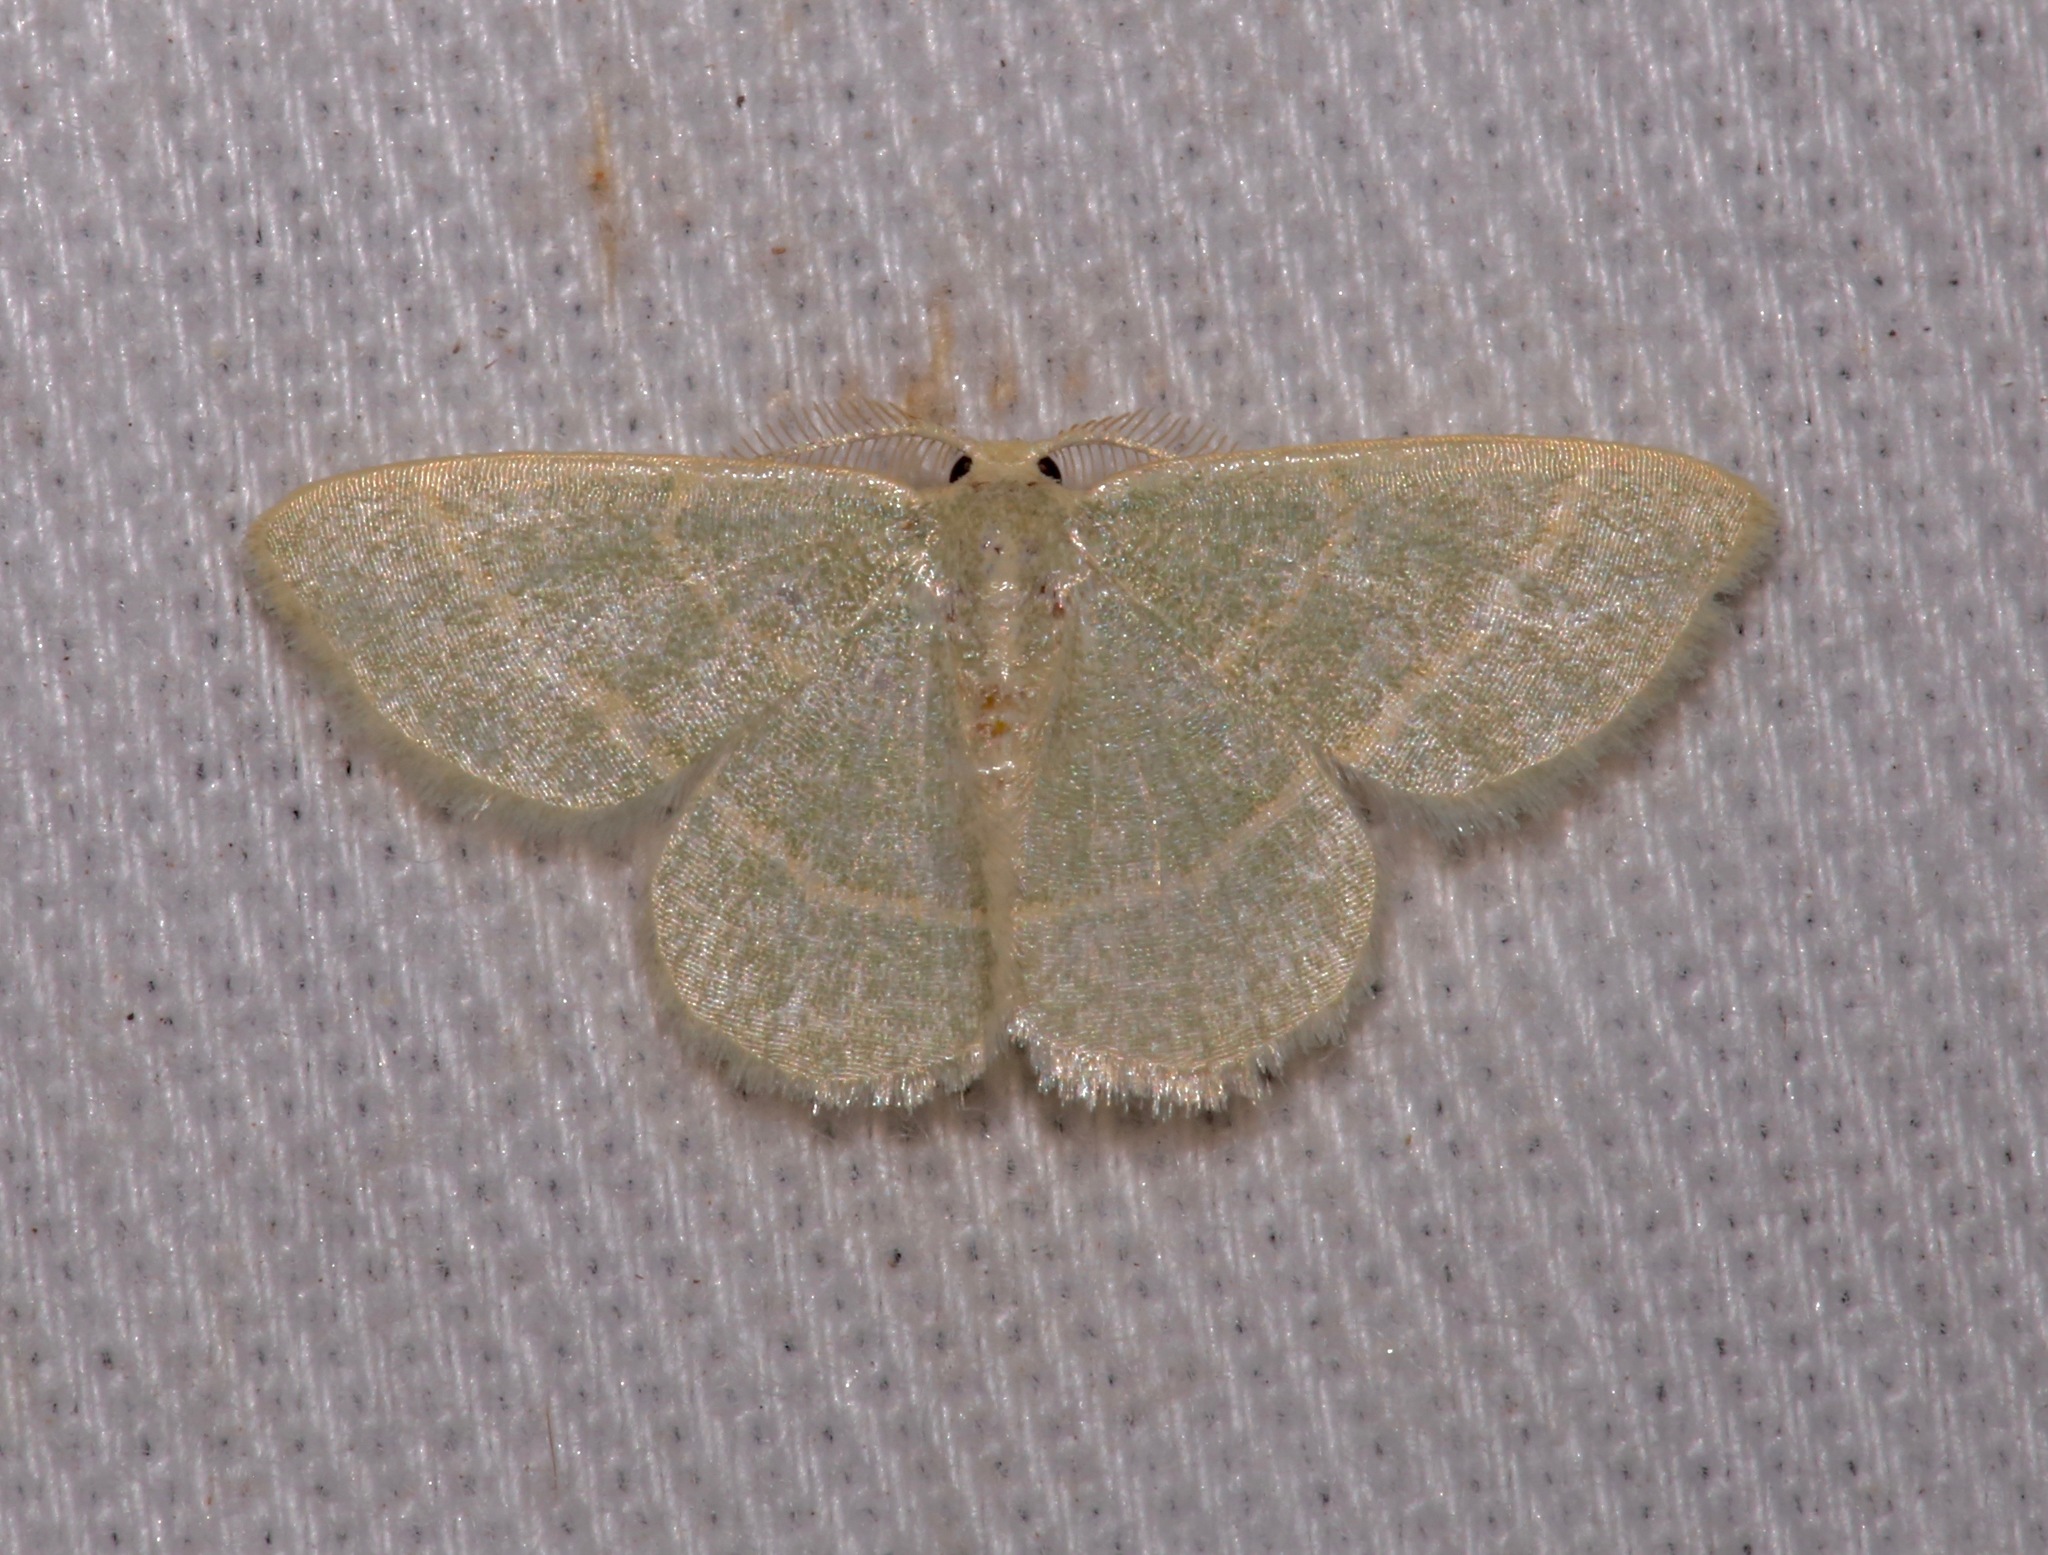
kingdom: Animalia
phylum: Arthropoda
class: Insecta
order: Lepidoptera
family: Geometridae
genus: Chlorochlamys
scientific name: Chlorochlamys chloroleucaria
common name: Blackberry looper
